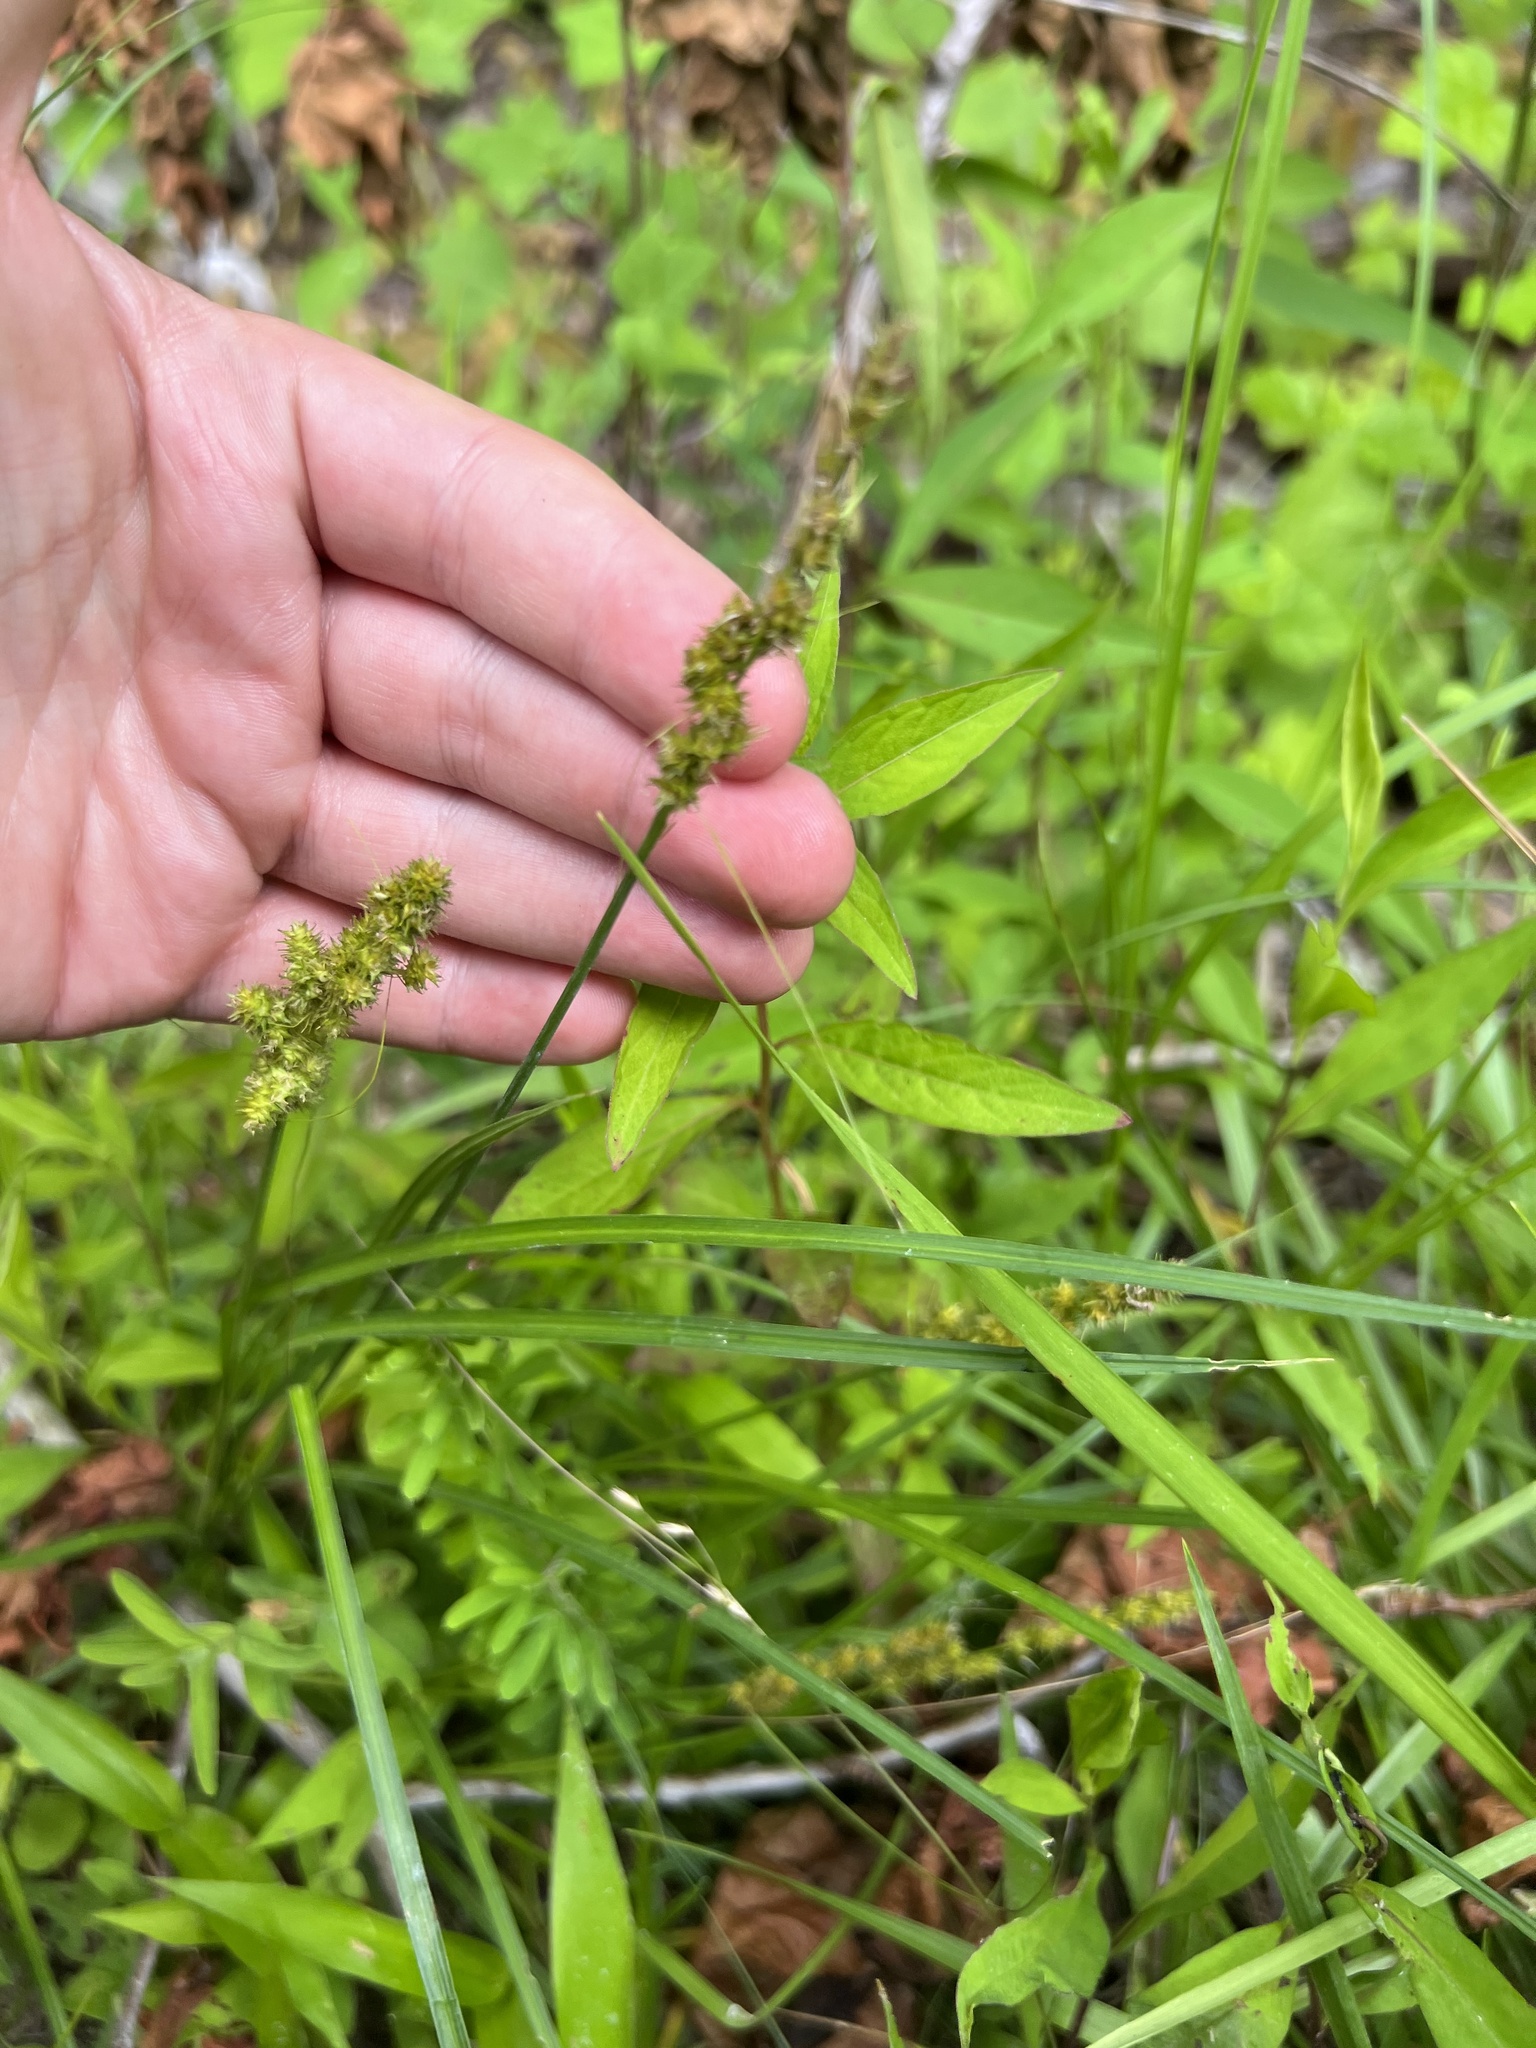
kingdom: Plantae
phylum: Tracheophyta
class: Liliopsida
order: Poales
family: Cyperaceae
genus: Carex
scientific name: Carex vulpinoidea
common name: American fox-sedge
